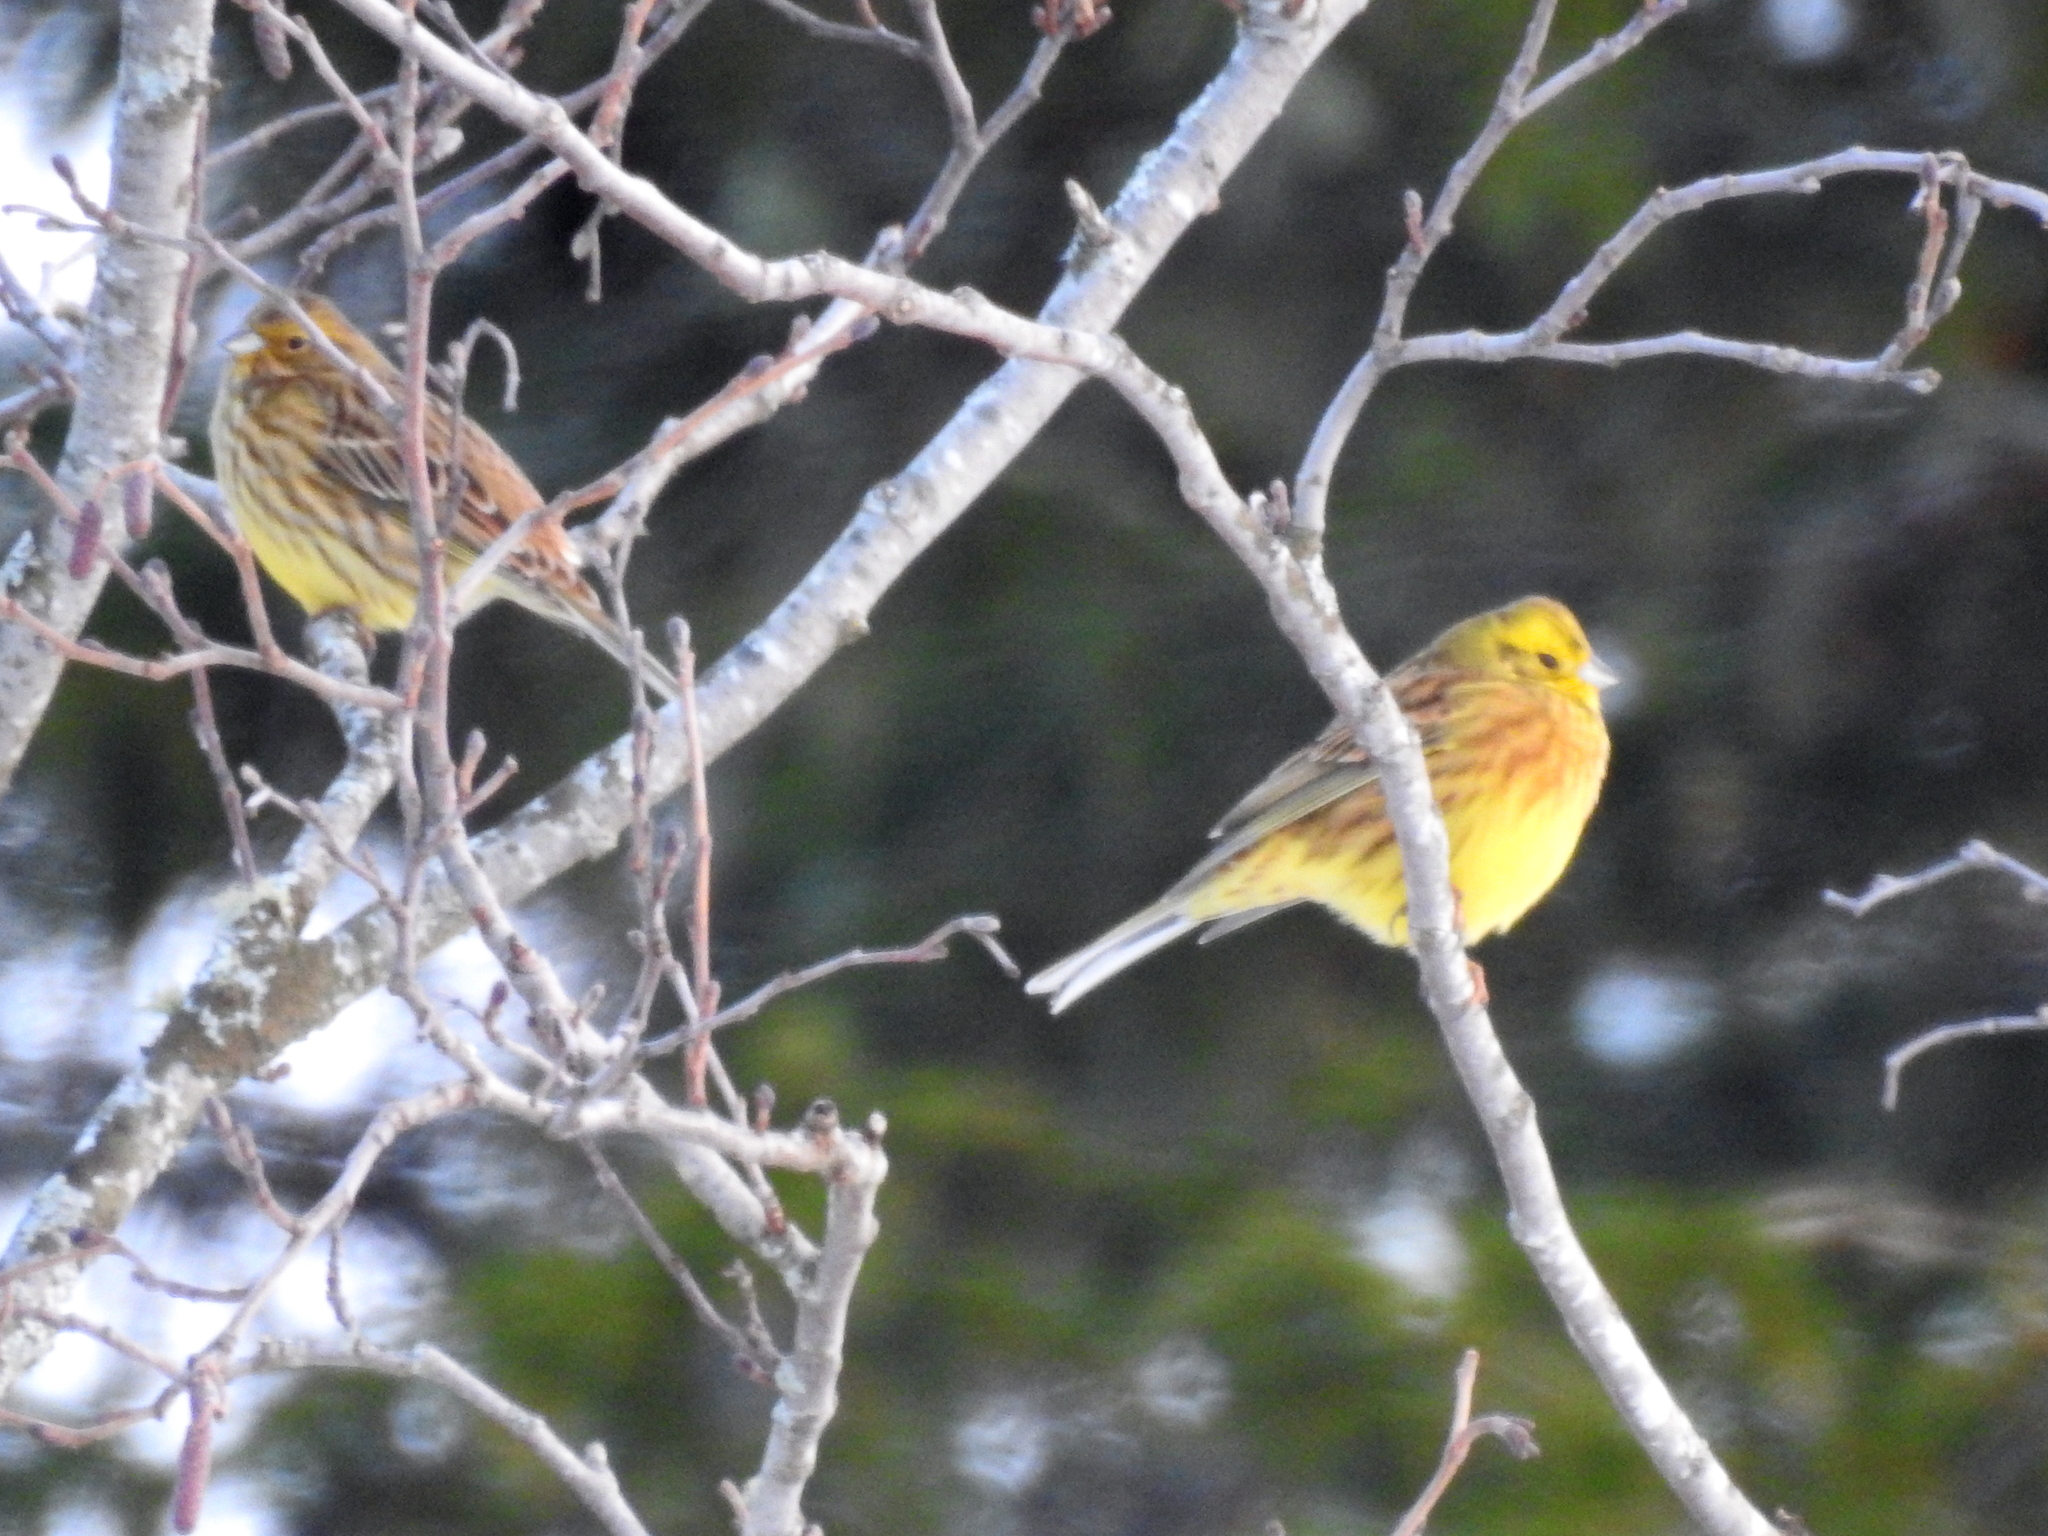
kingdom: Animalia
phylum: Chordata
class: Aves
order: Passeriformes
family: Emberizidae
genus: Emberiza
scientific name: Emberiza citrinella
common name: Yellowhammer
